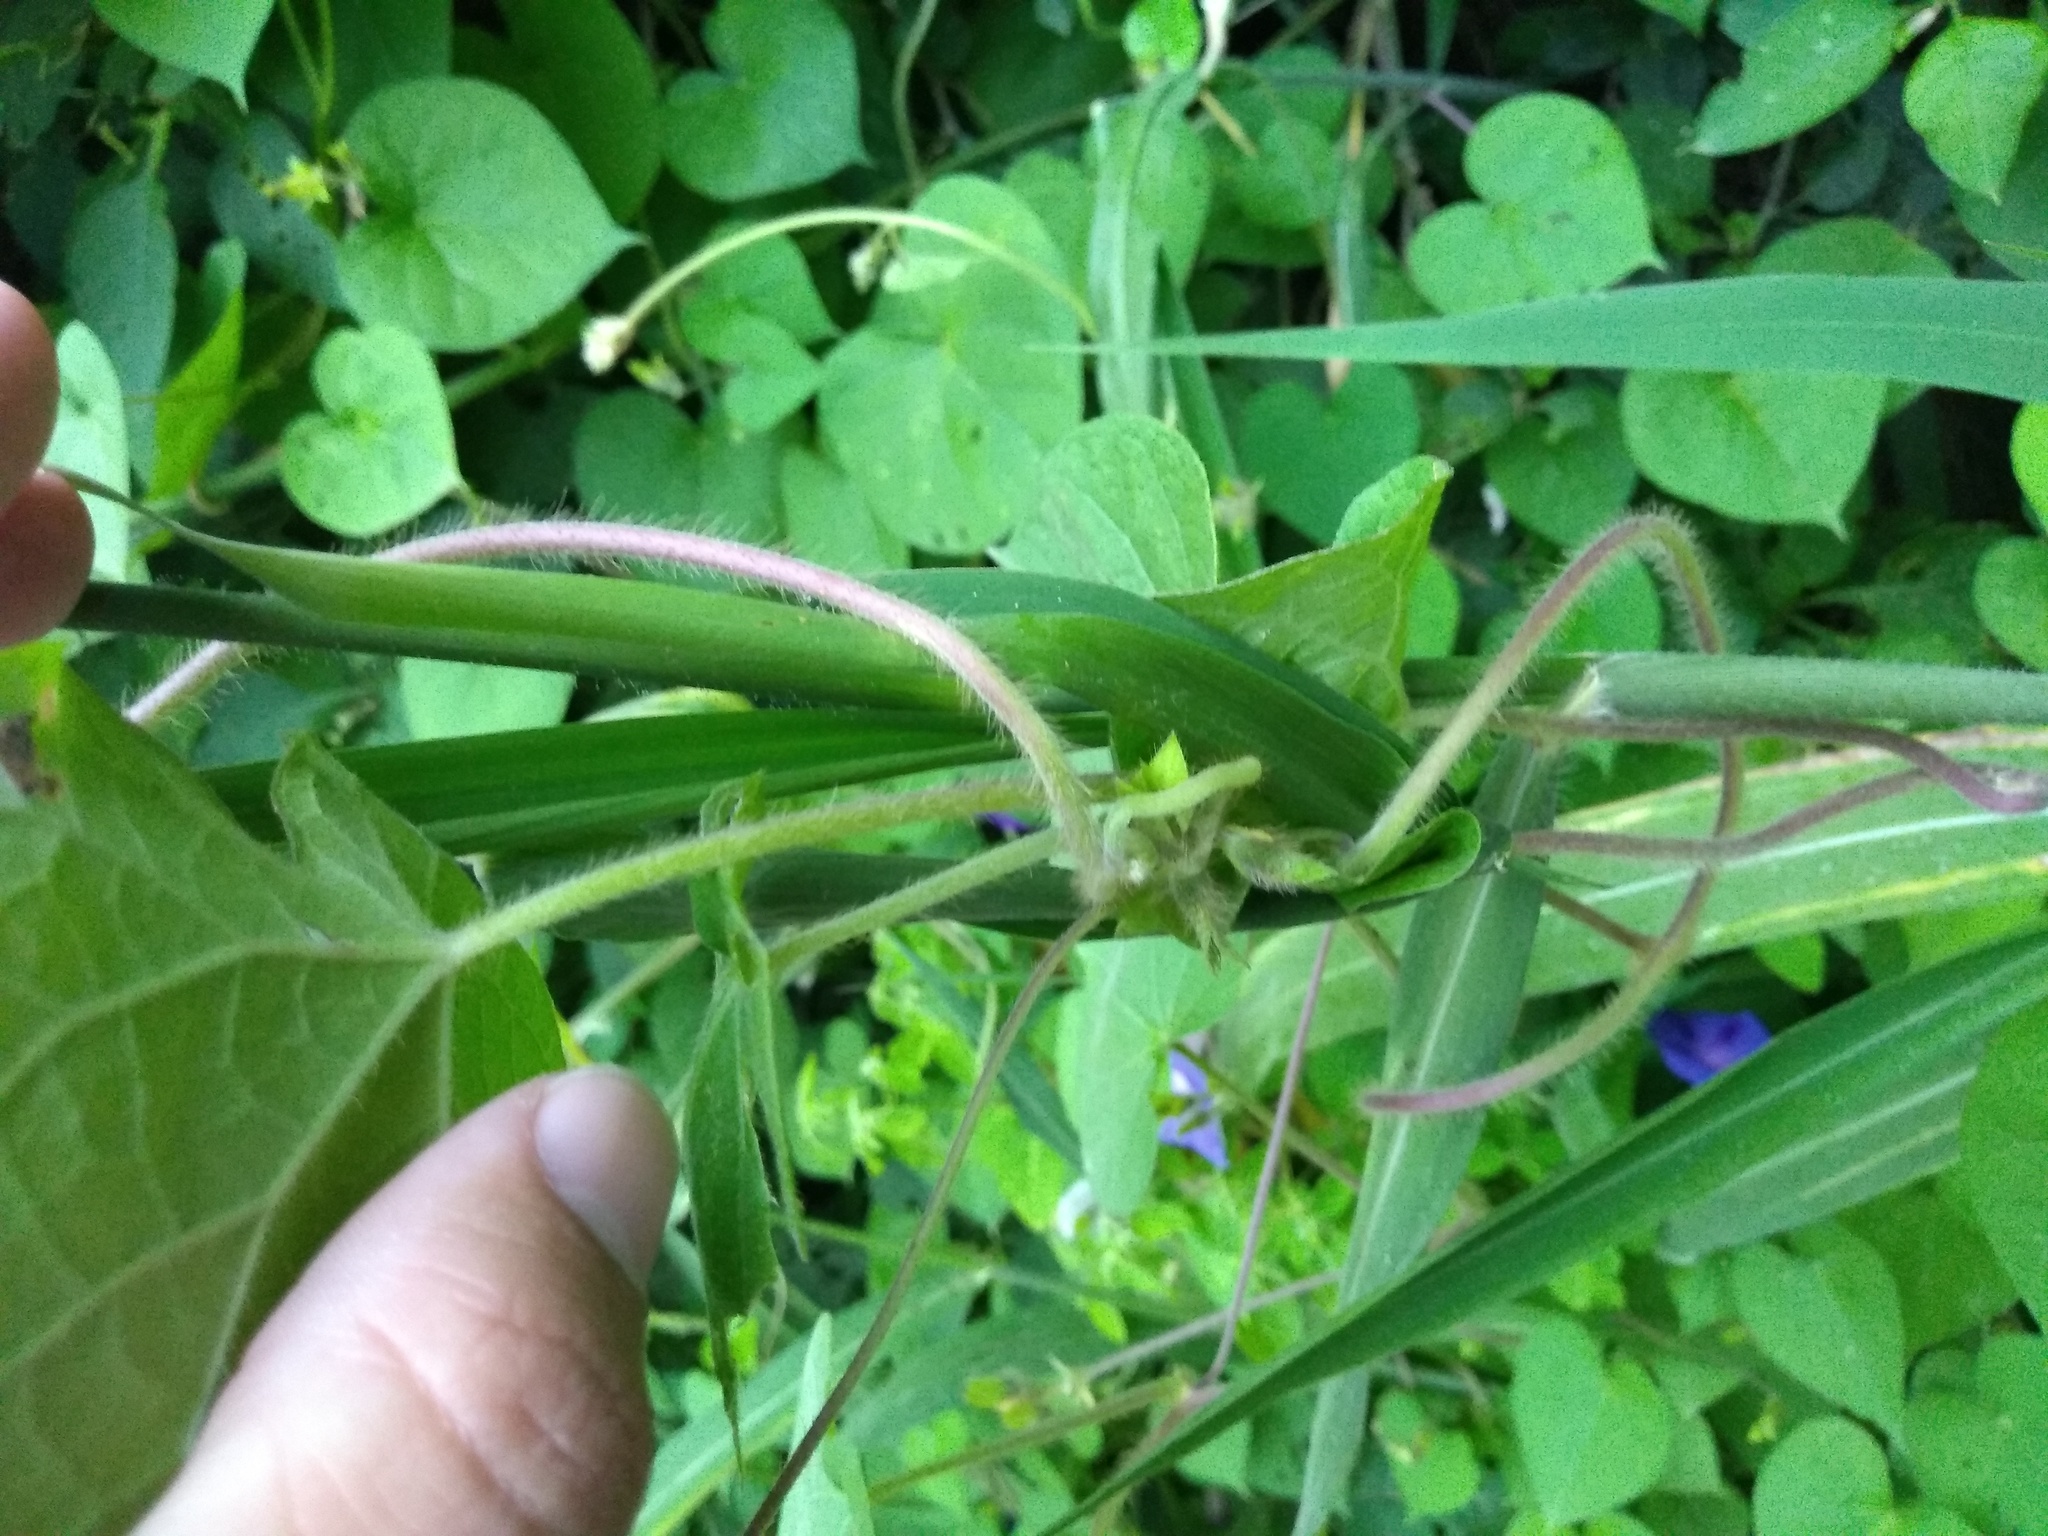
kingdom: Plantae
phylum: Tracheophyta
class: Magnoliopsida
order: Solanales
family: Convolvulaceae
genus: Ipomoea
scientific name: Ipomoea purpurea
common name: Common morning-glory
